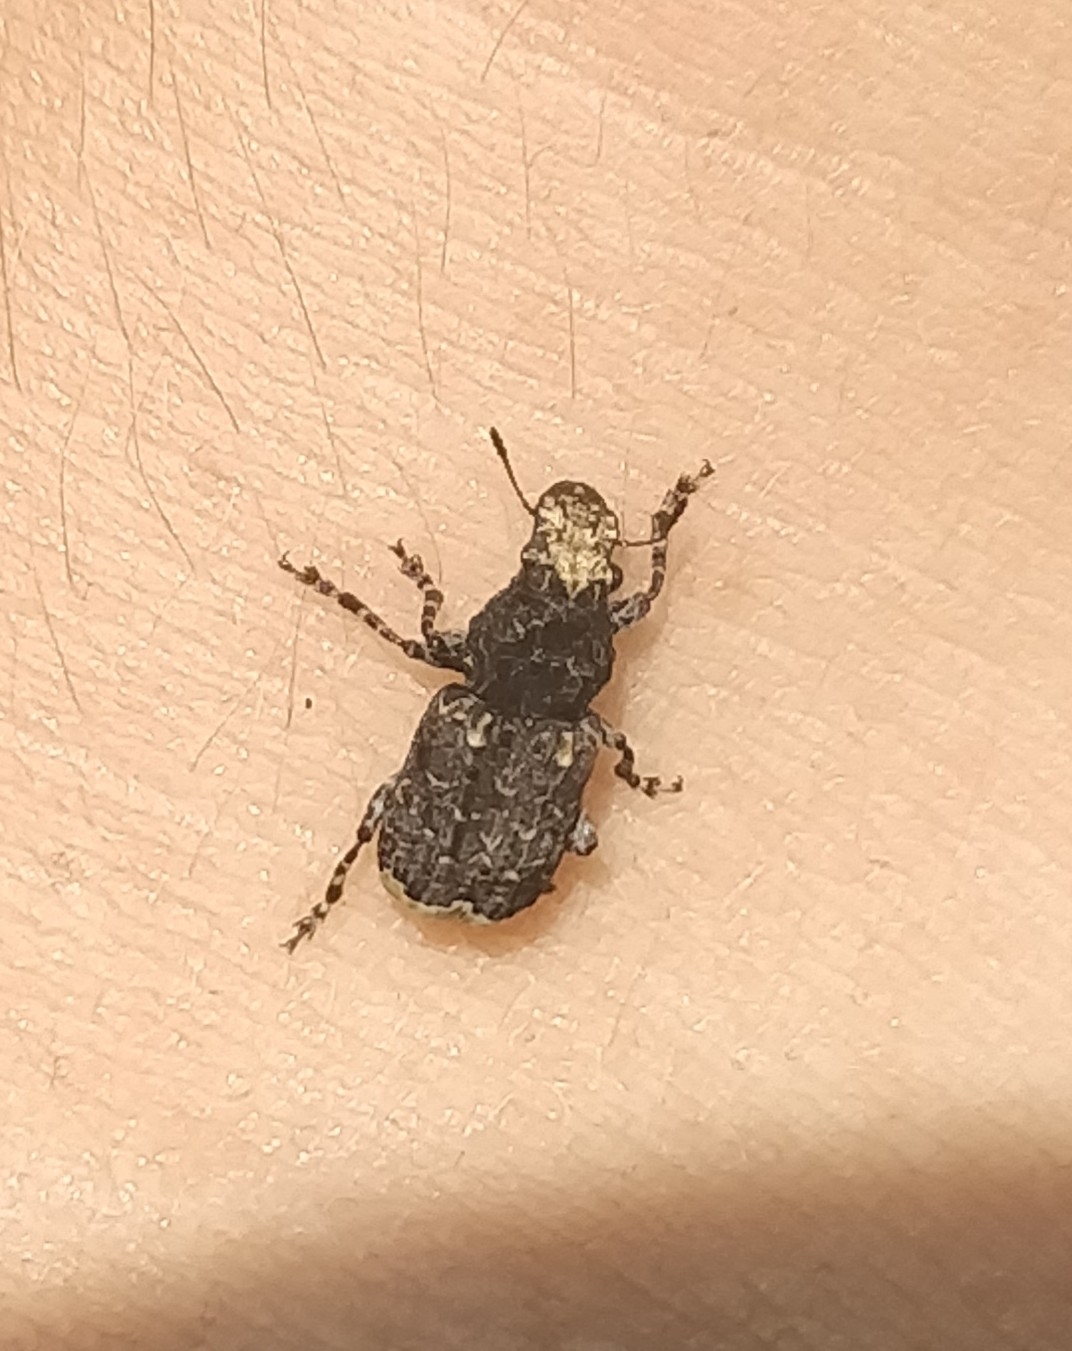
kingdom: Animalia
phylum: Arthropoda
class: Insecta
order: Coleoptera
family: Anthribidae
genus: Platyrhinus
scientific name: Platyrhinus resinosus
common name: Cramp-ball fungus weevil
